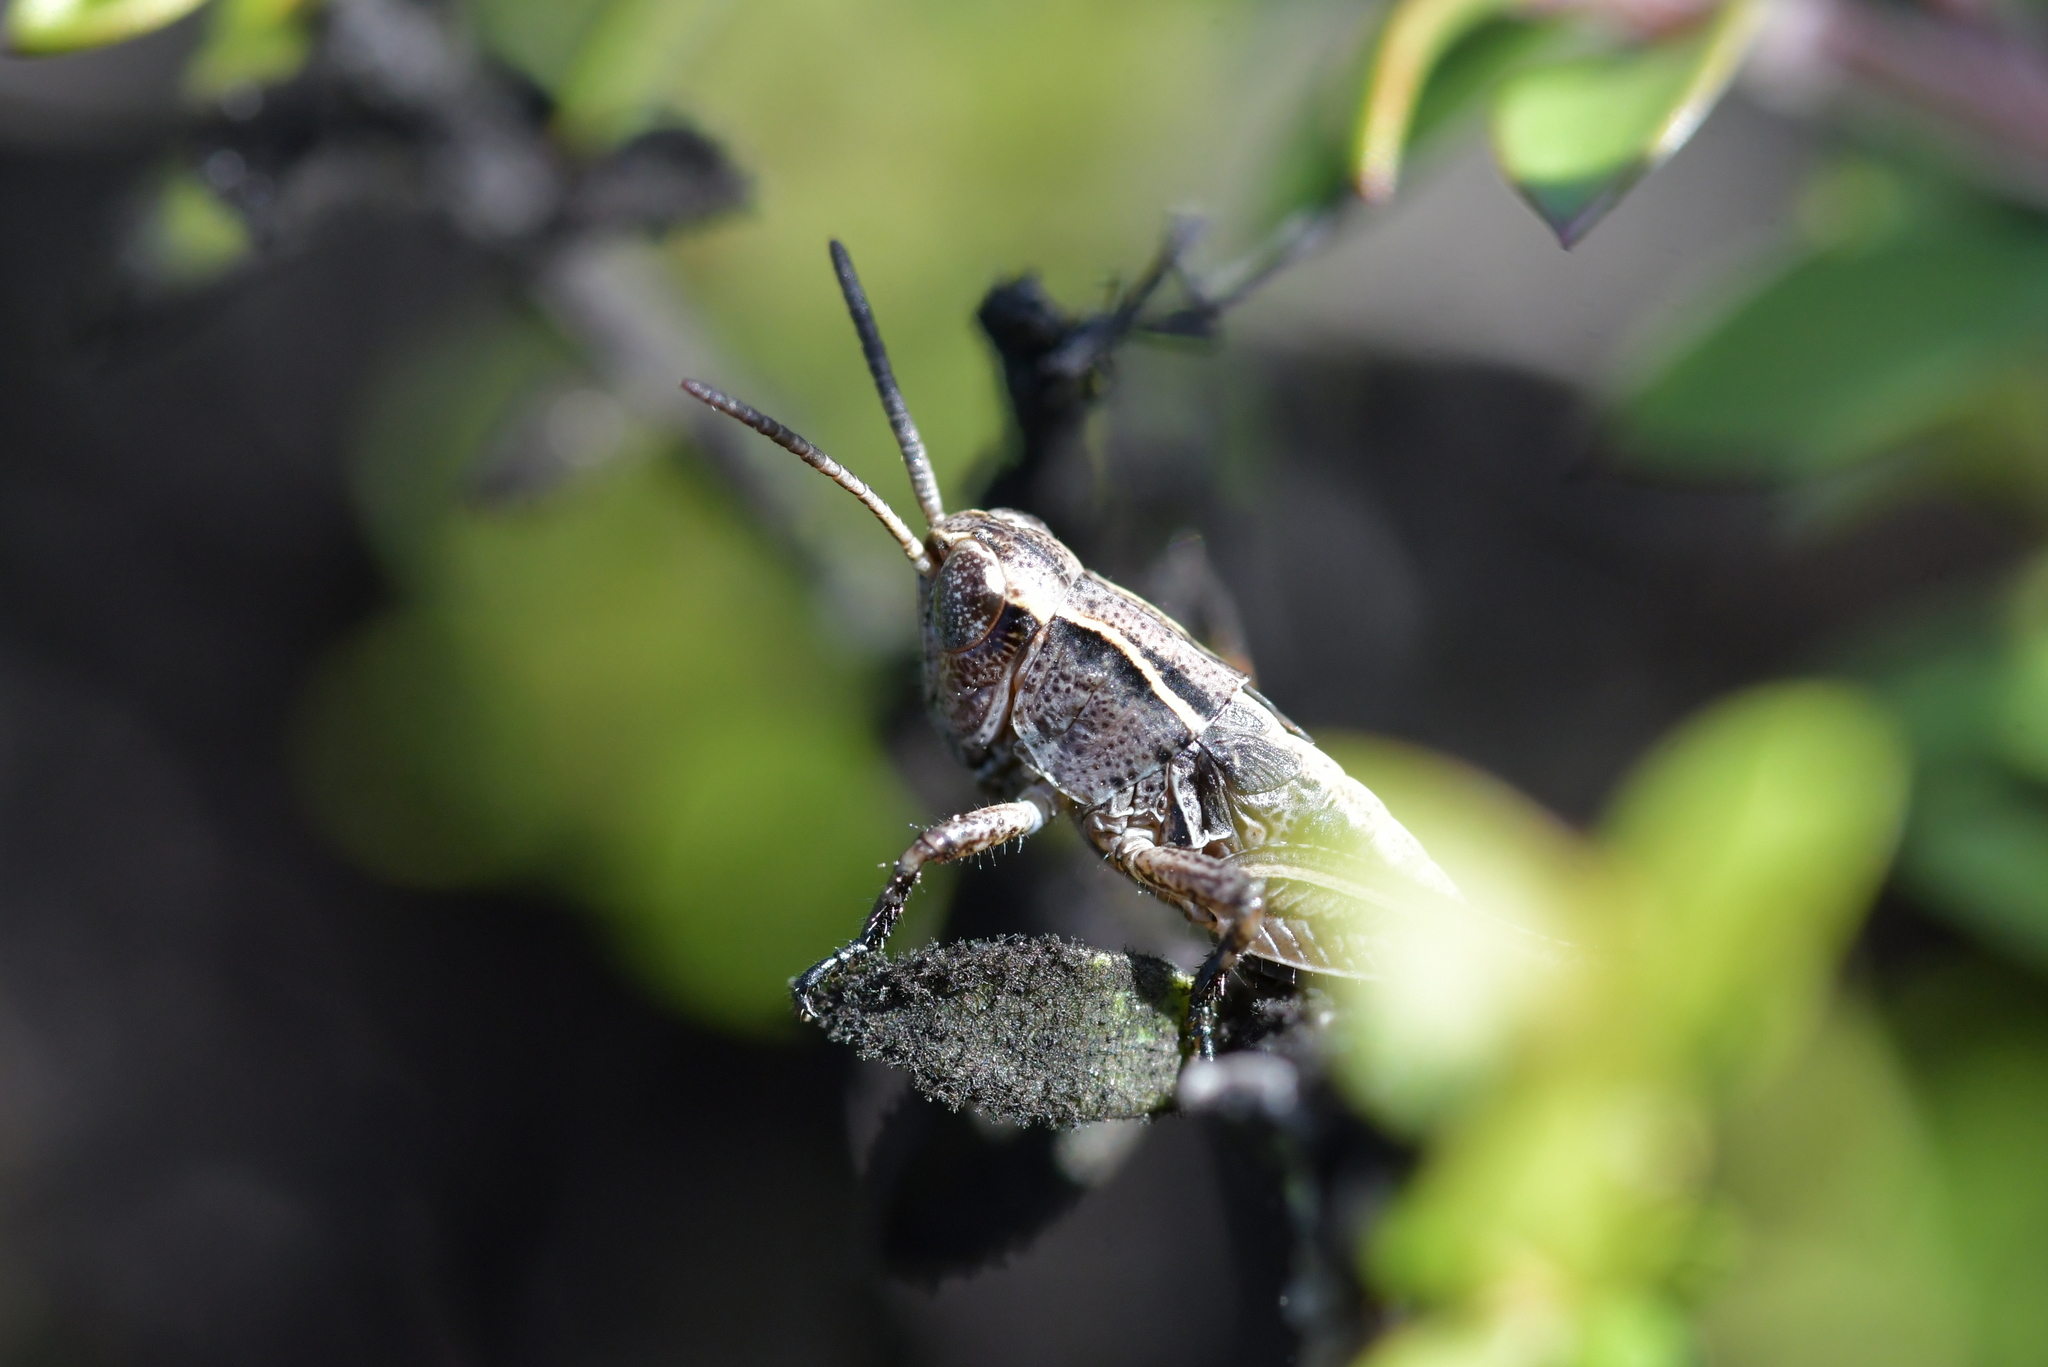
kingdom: Animalia
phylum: Arthropoda
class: Insecta
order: Orthoptera
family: Acrididae
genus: Phaulacridium
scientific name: Phaulacridium marginale
